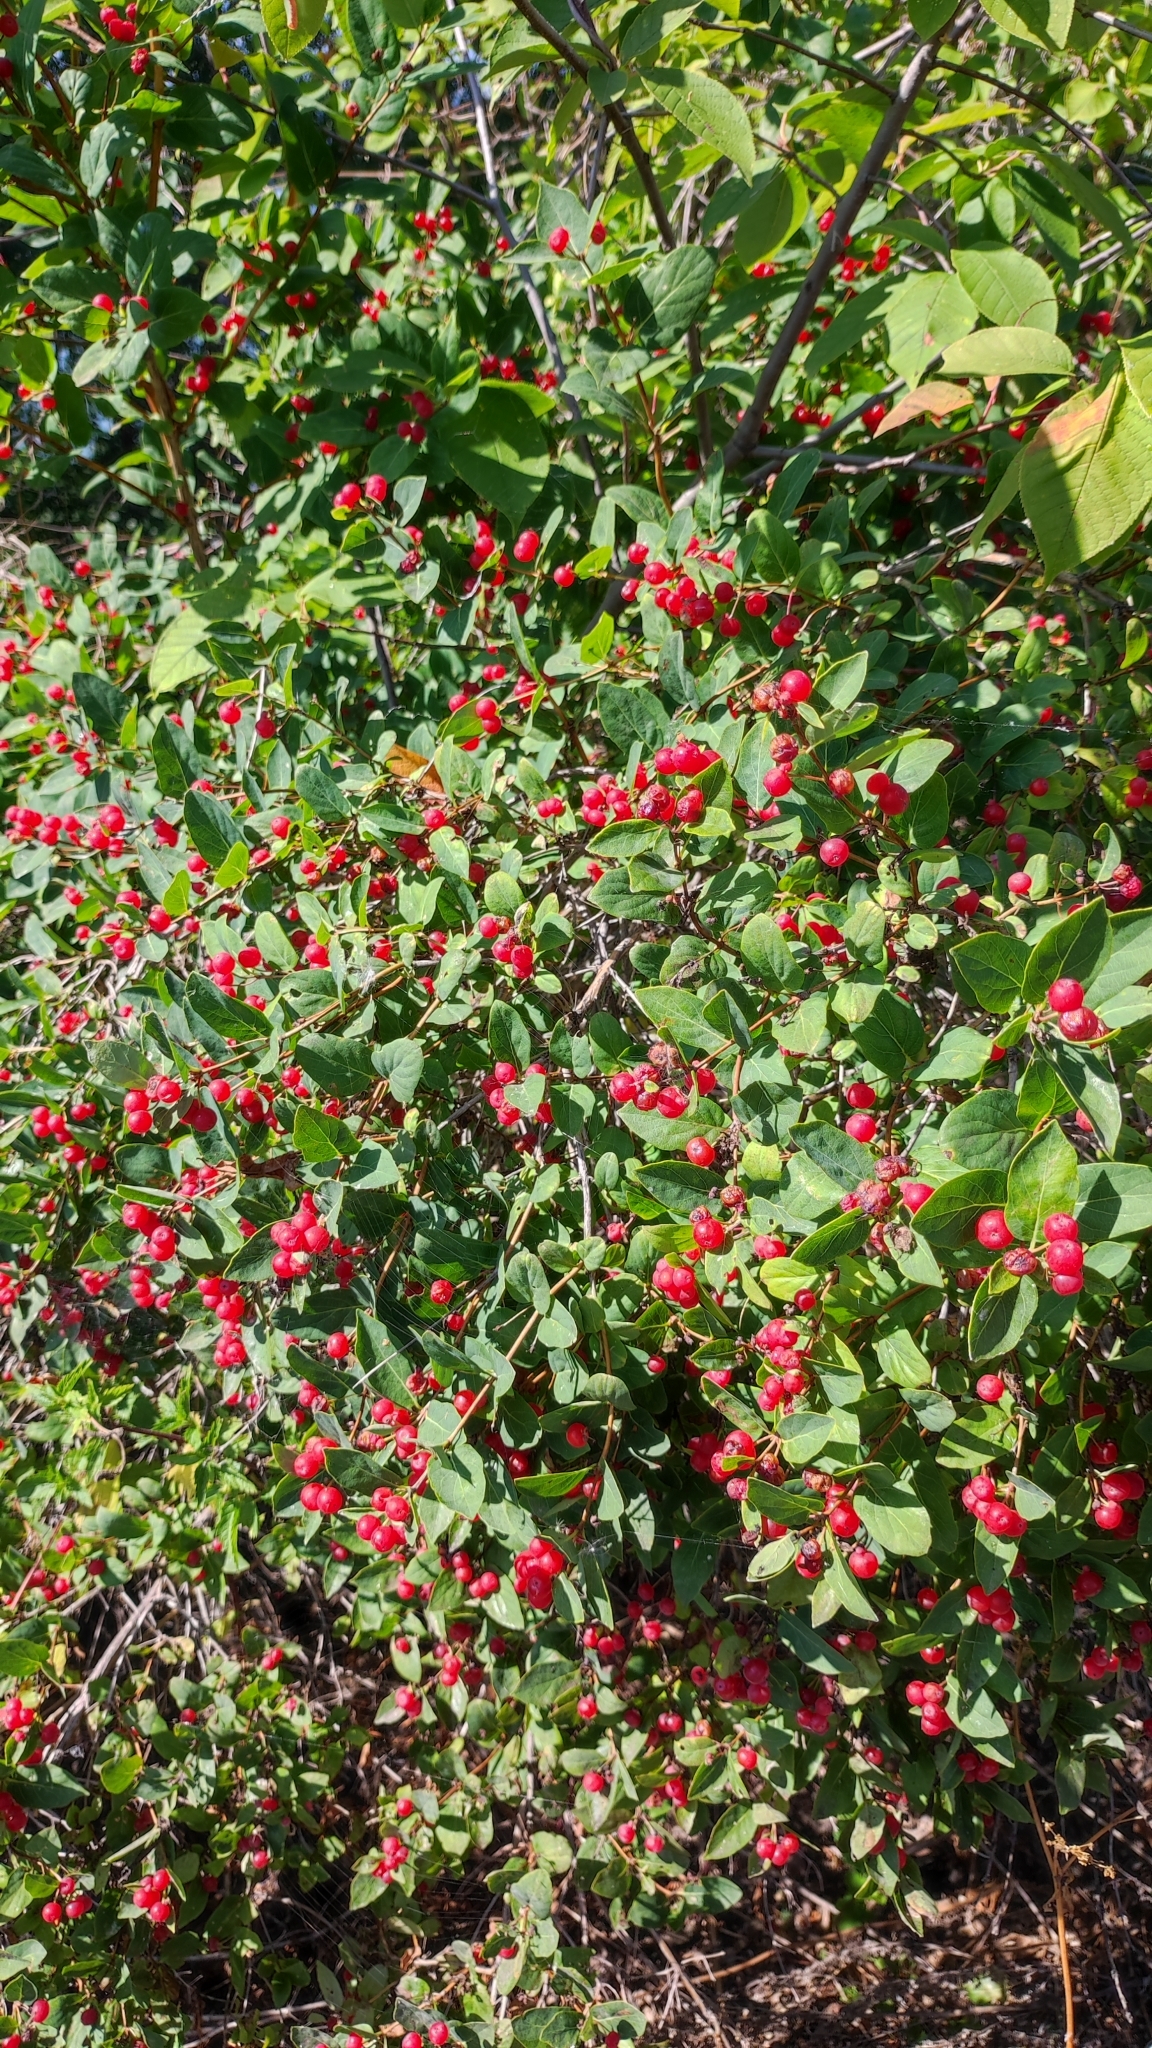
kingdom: Plantae
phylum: Tracheophyta
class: Magnoliopsida
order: Dipsacales
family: Caprifoliaceae
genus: Lonicera
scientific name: Lonicera tatarica
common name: Tatarian honeysuckle
